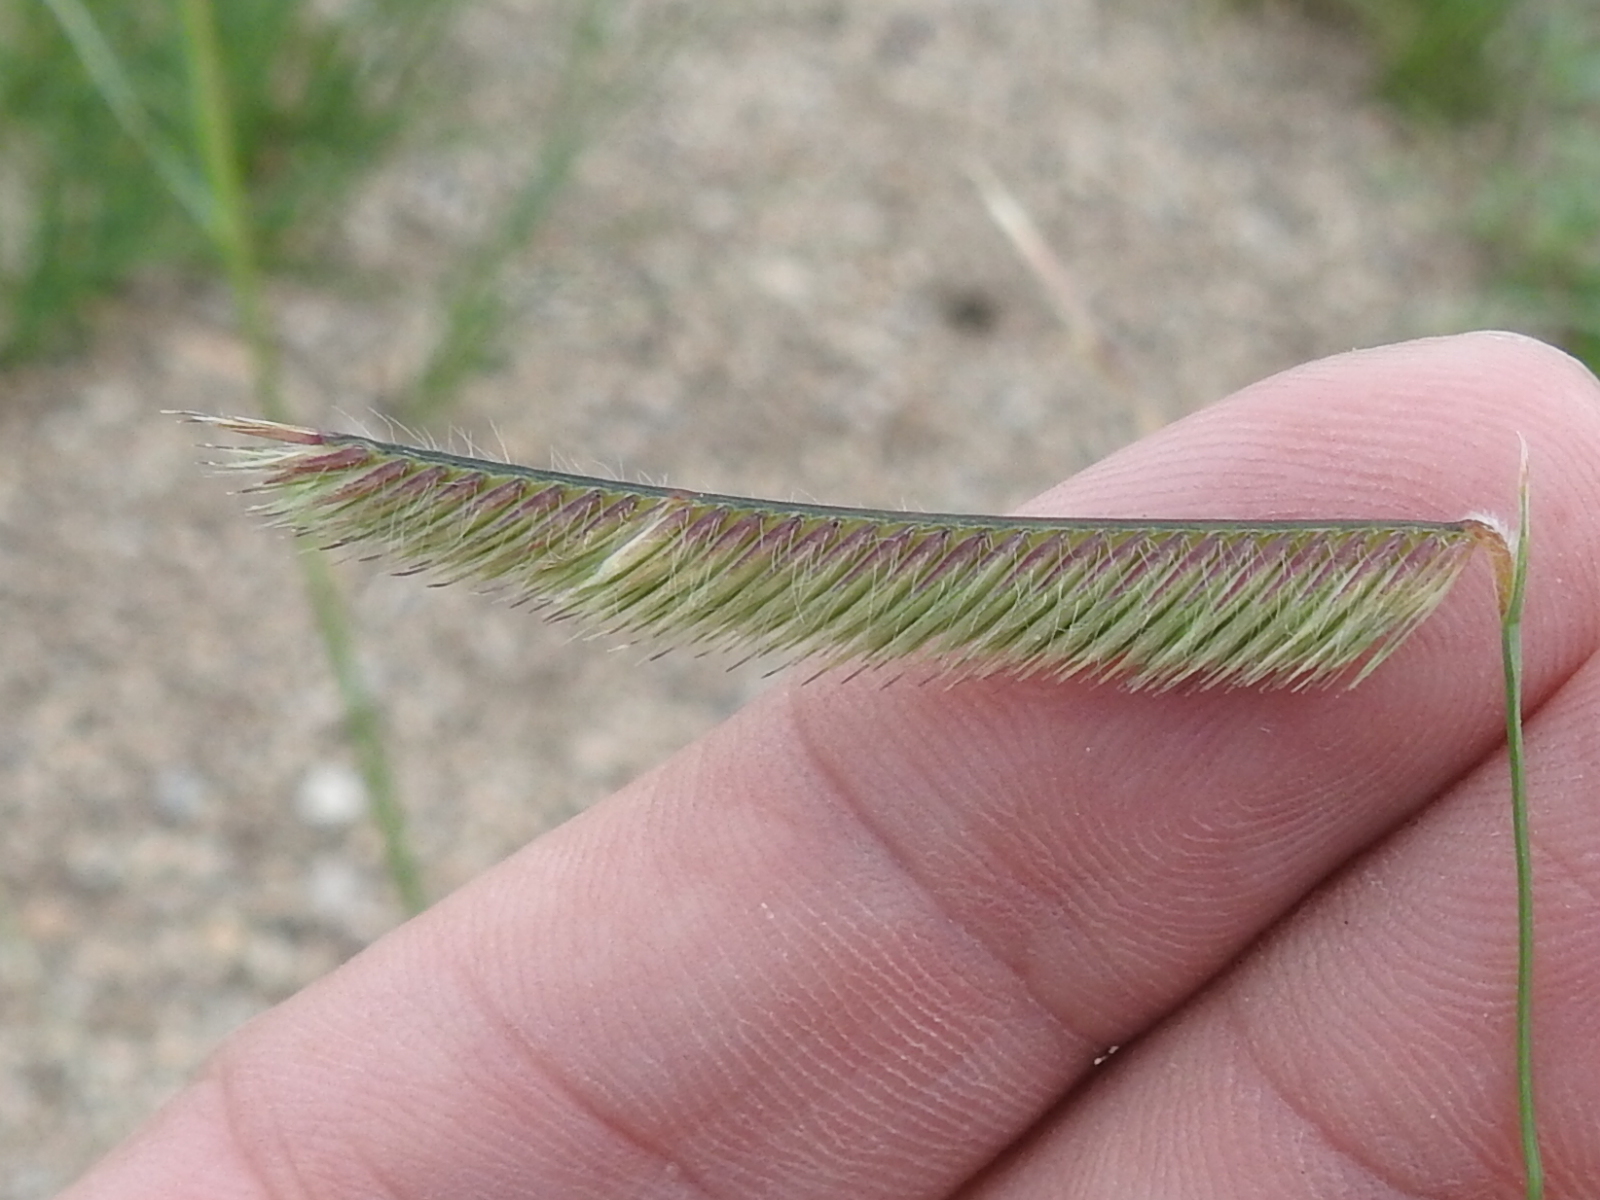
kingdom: Plantae
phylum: Tracheophyta
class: Liliopsida
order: Poales
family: Poaceae
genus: Bouteloua
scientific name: Bouteloua gracilis
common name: Blue grama
